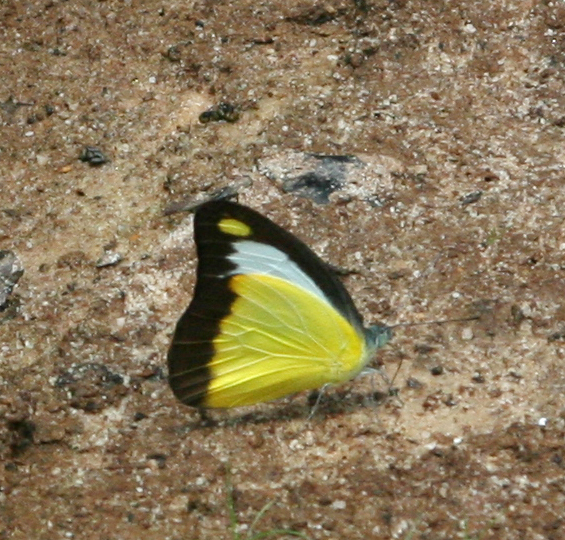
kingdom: Animalia
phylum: Arthropoda
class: Insecta
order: Lepidoptera
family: Pieridae
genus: Appias
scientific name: Appias lyncida
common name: Chocolate albatross
